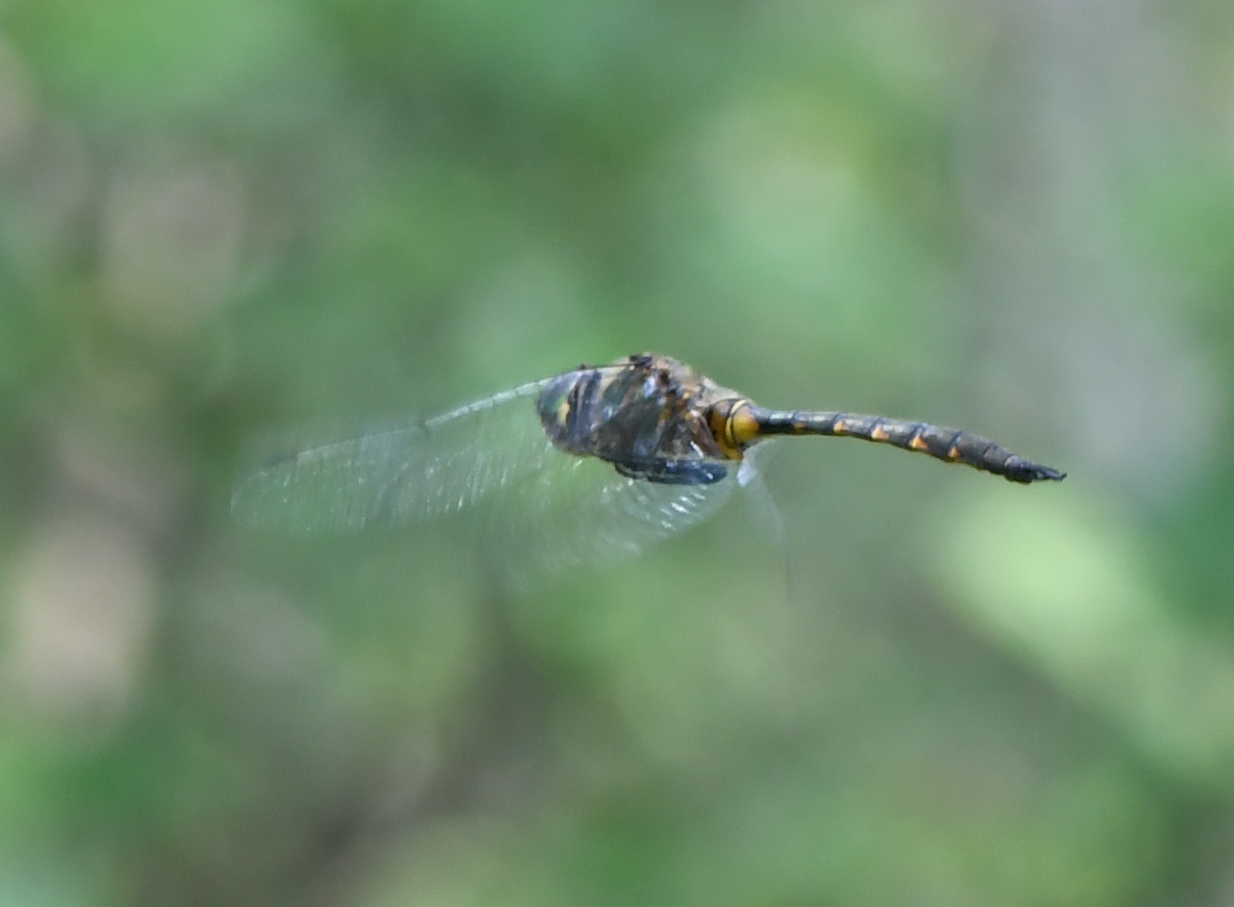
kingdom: Animalia
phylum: Arthropoda
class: Insecta
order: Odonata
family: Corduliidae
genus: Somatochlora
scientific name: Somatochlora flavomaculata
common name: Yellow-spotted emerald
